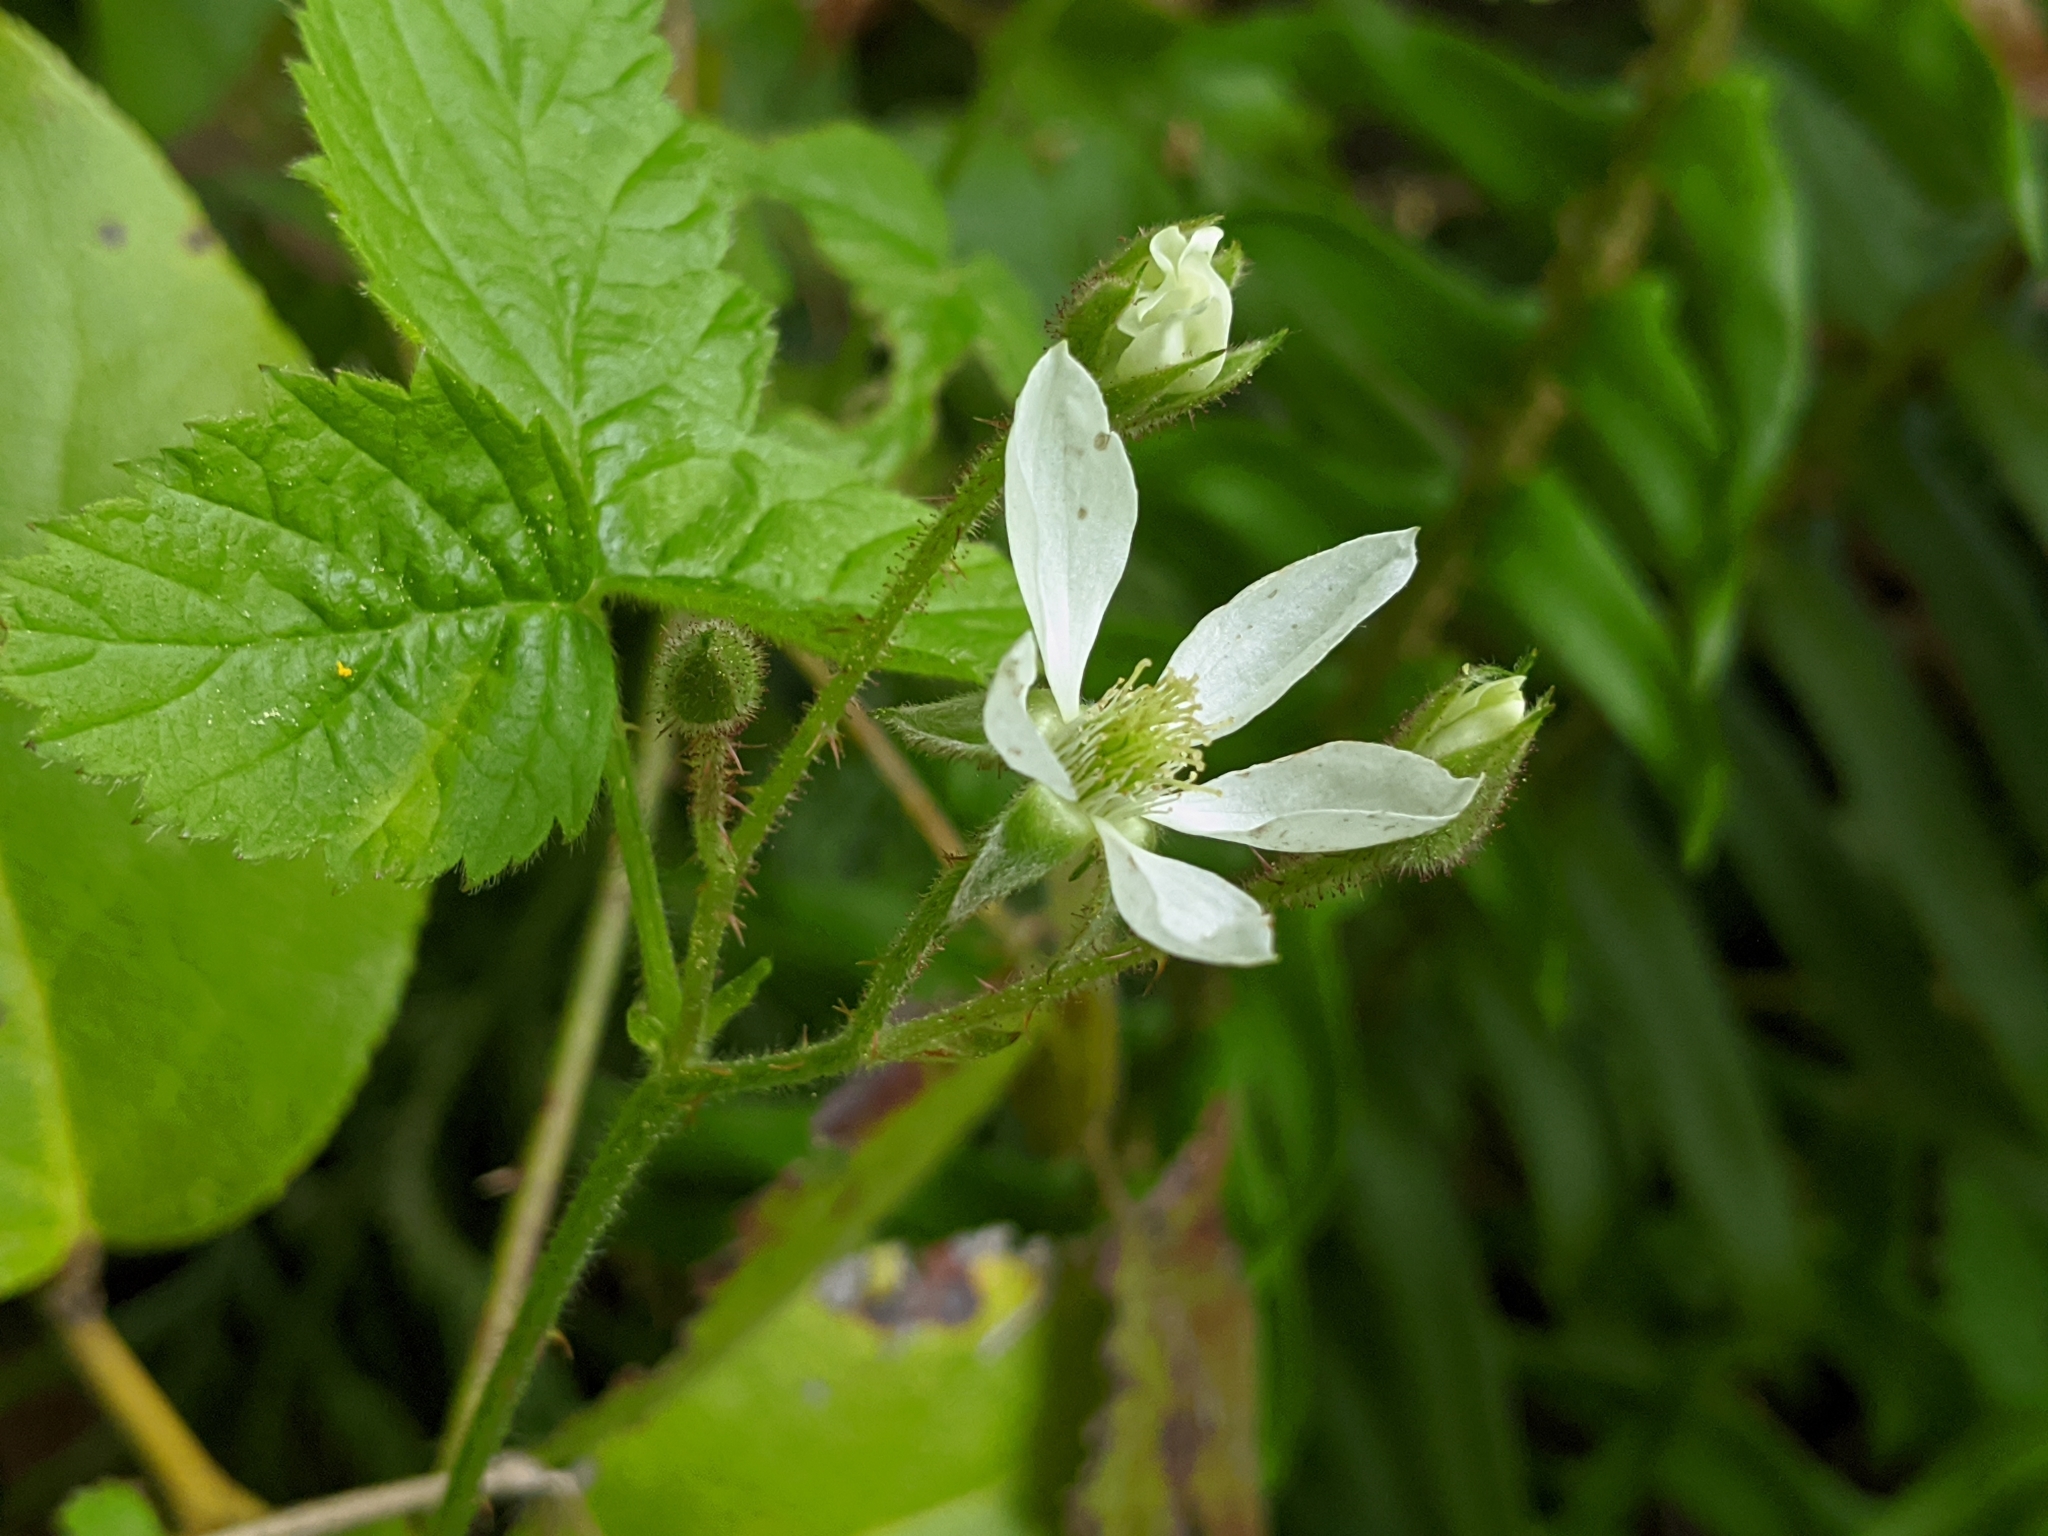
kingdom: Plantae
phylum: Tracheophyta
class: Magnoliopsida
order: Rosales
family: Rosaceae
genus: Rubus
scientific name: Rubus ursinus
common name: Pacific blackberry
